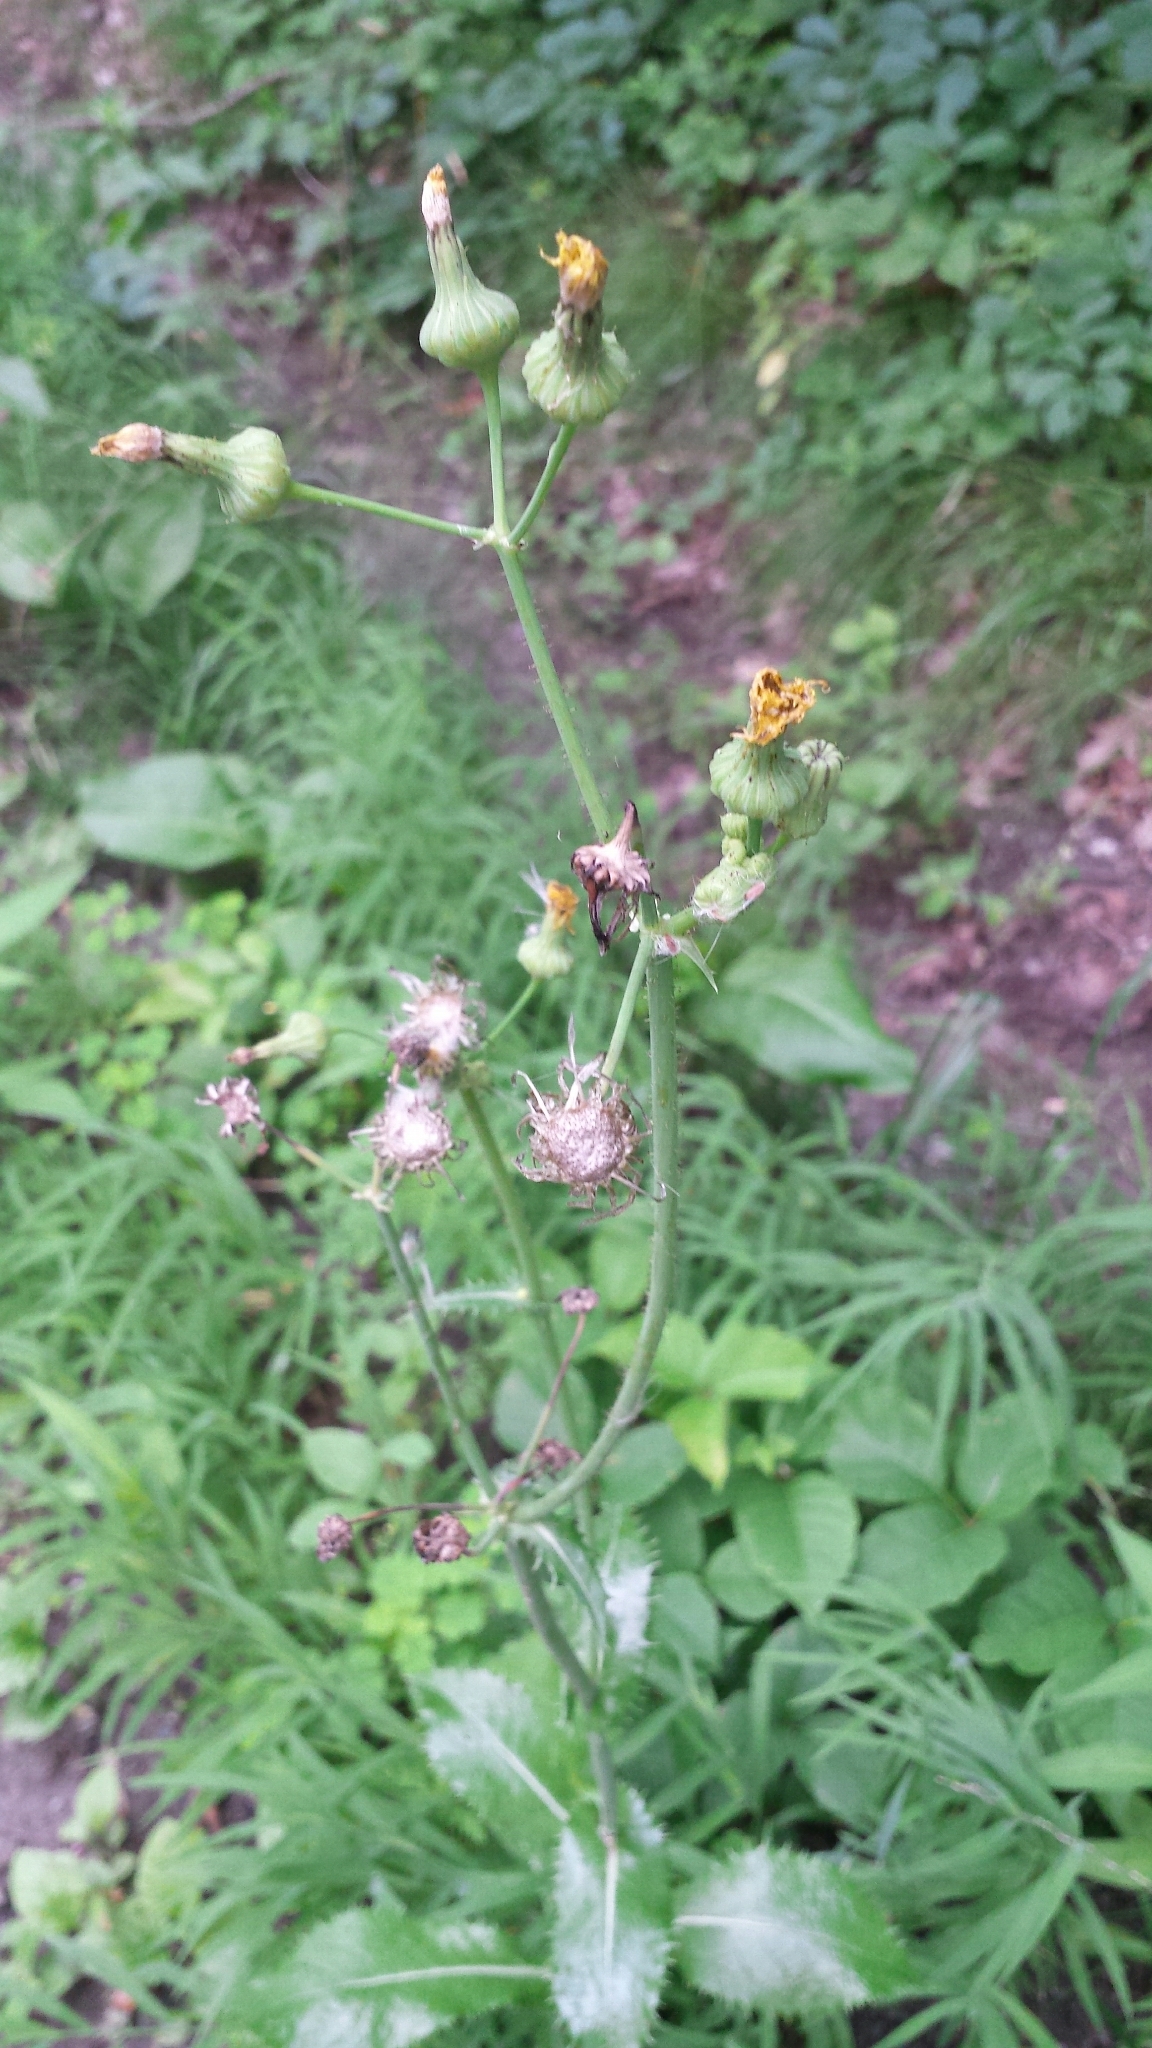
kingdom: Plantae
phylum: Tracheophyta
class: Magnoliopsida
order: Asterales
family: Asteraceae
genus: Sonchus
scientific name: Sonchus asper
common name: Prickly sow-thistle
